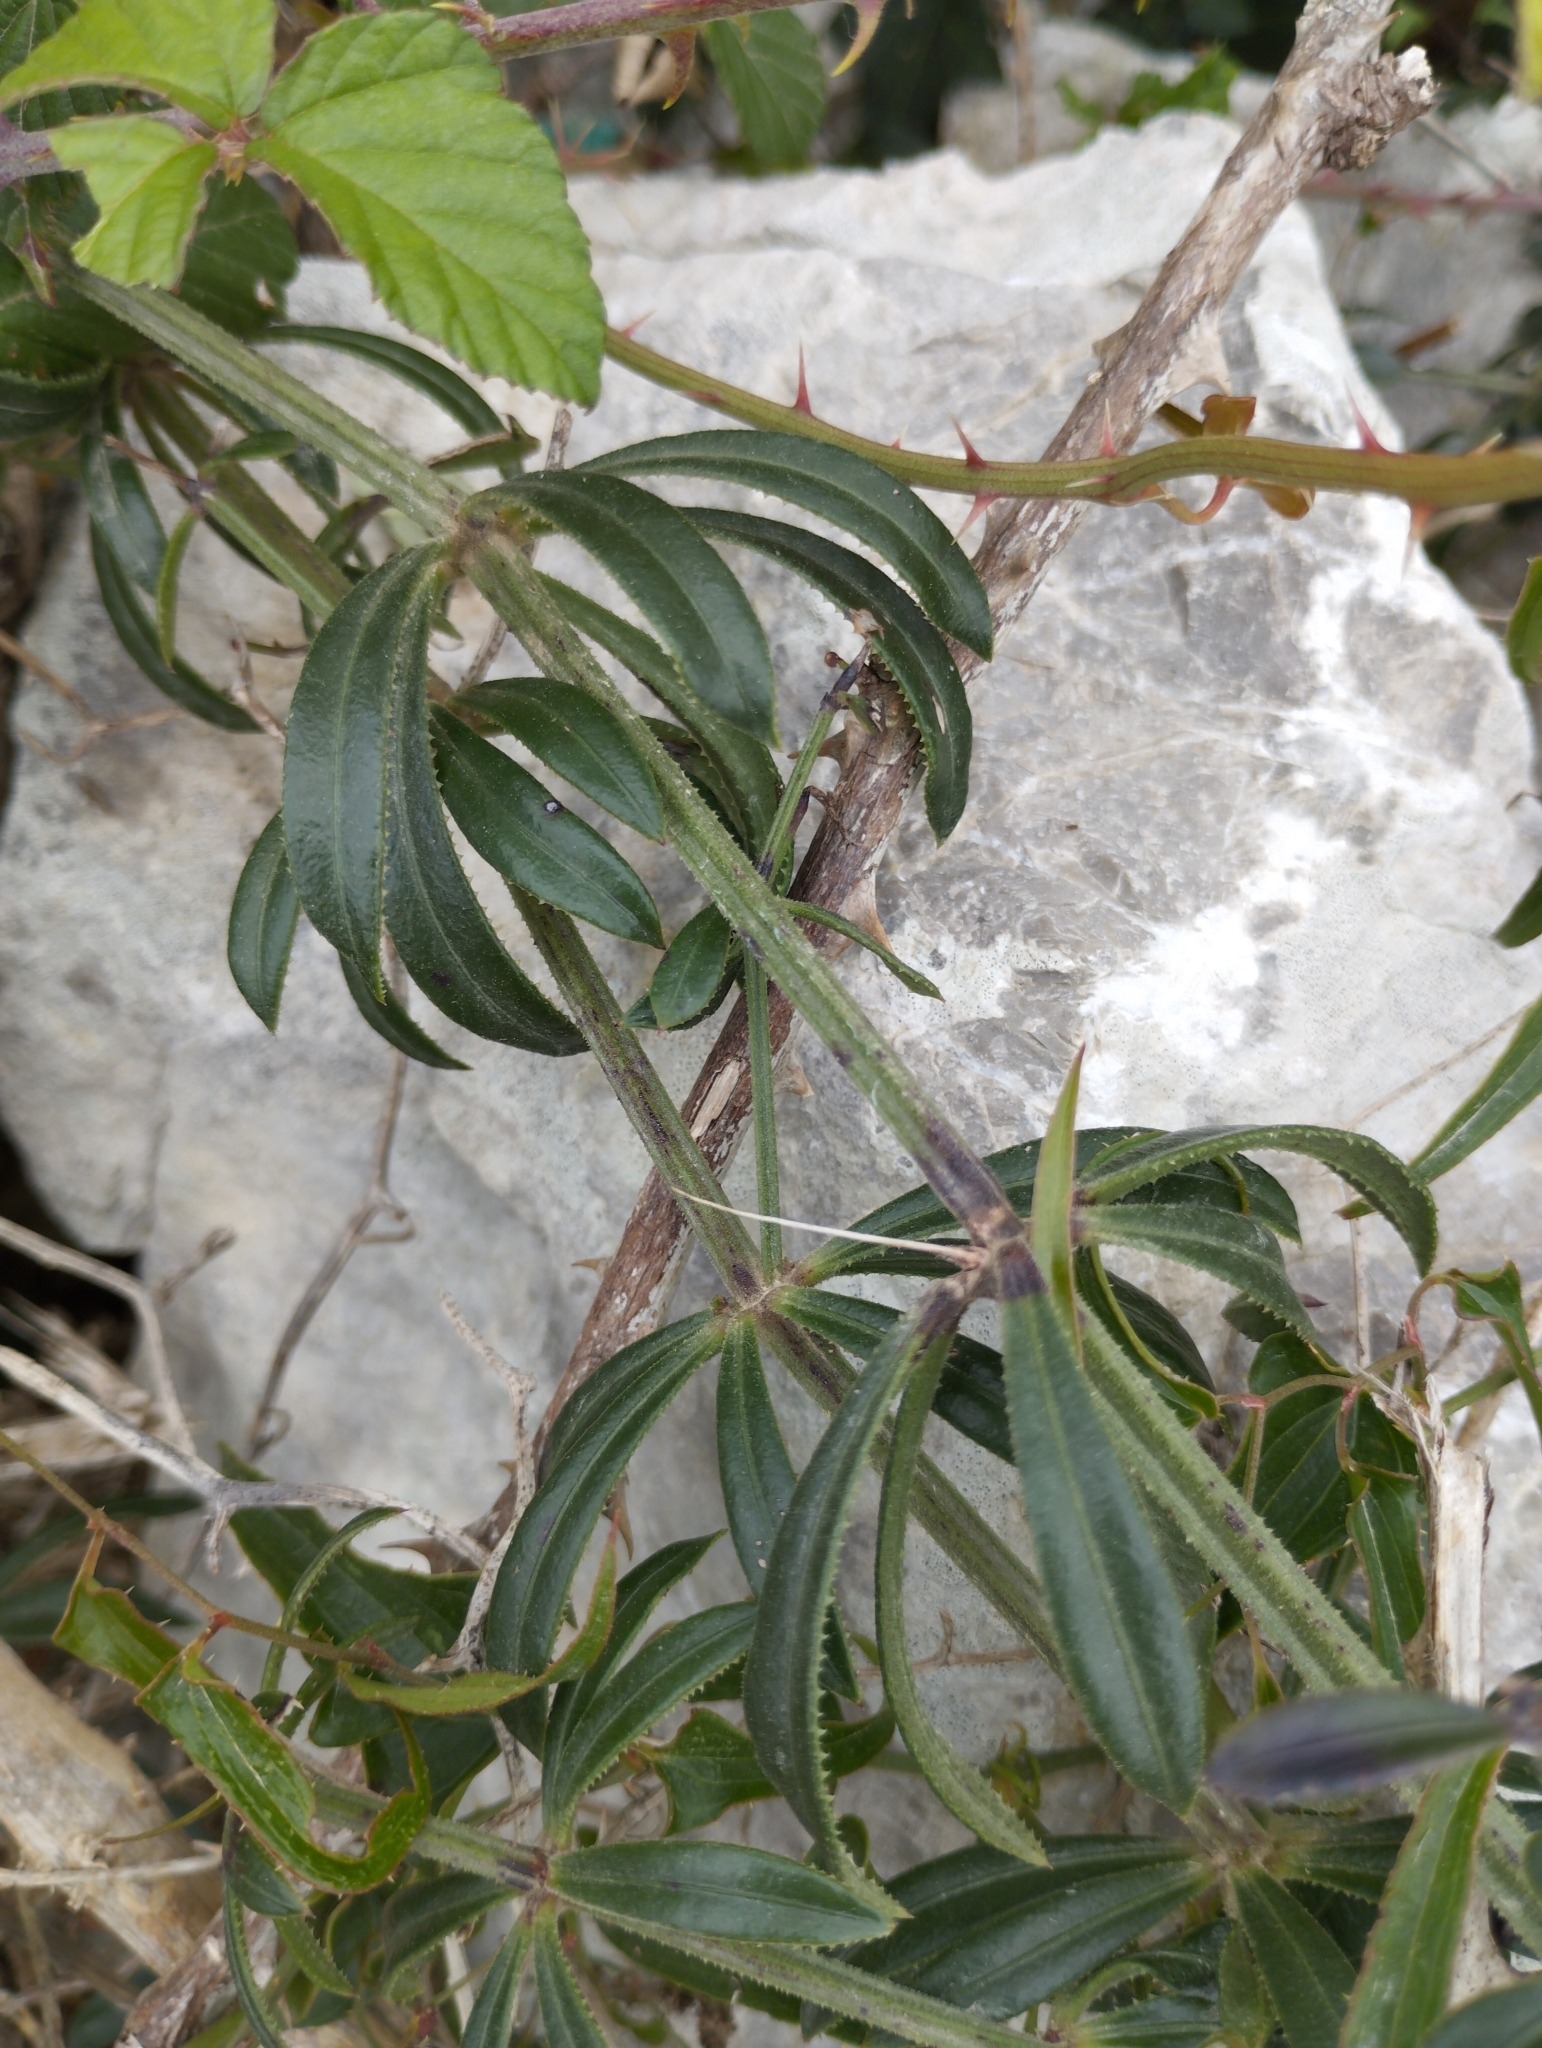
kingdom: Plantae
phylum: Tracheophyta
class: Magnoliopsida
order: Gentianales
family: Rubiaceae
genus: Rubia
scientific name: Rubia peregrina
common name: Wild madder
